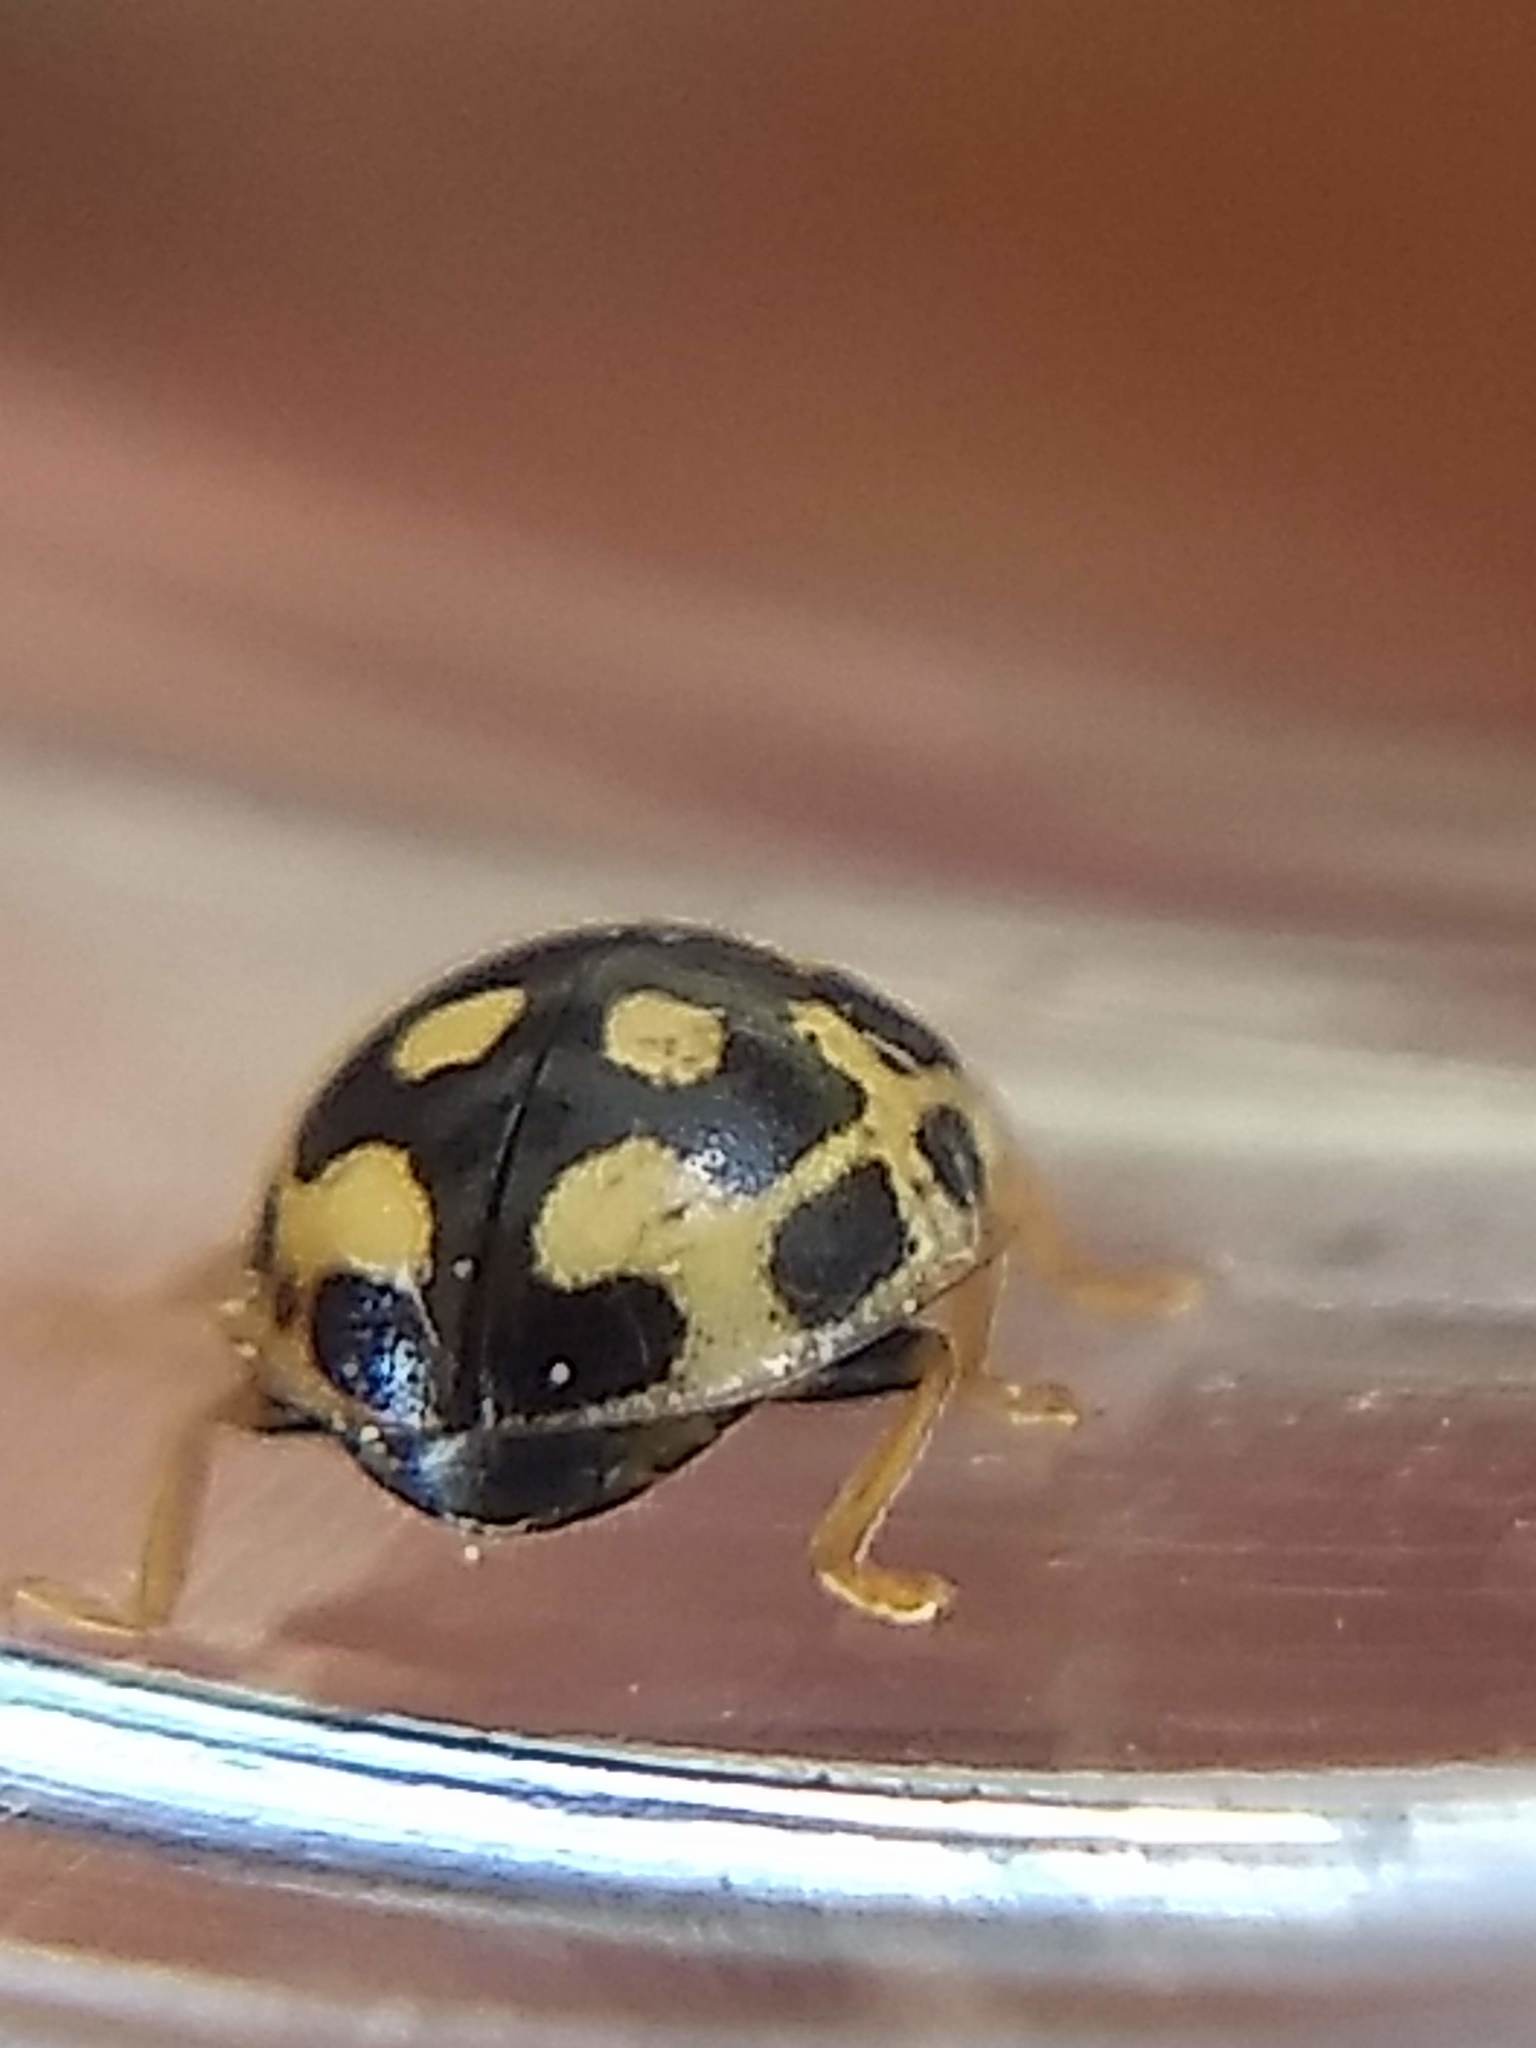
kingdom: Animalia
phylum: Arthropoda
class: Insecta
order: Coleoptera
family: Coccinellidae
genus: Propylaea
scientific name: Propylaea quatuordecimpunctata
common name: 14-spotted ladybird beetle
